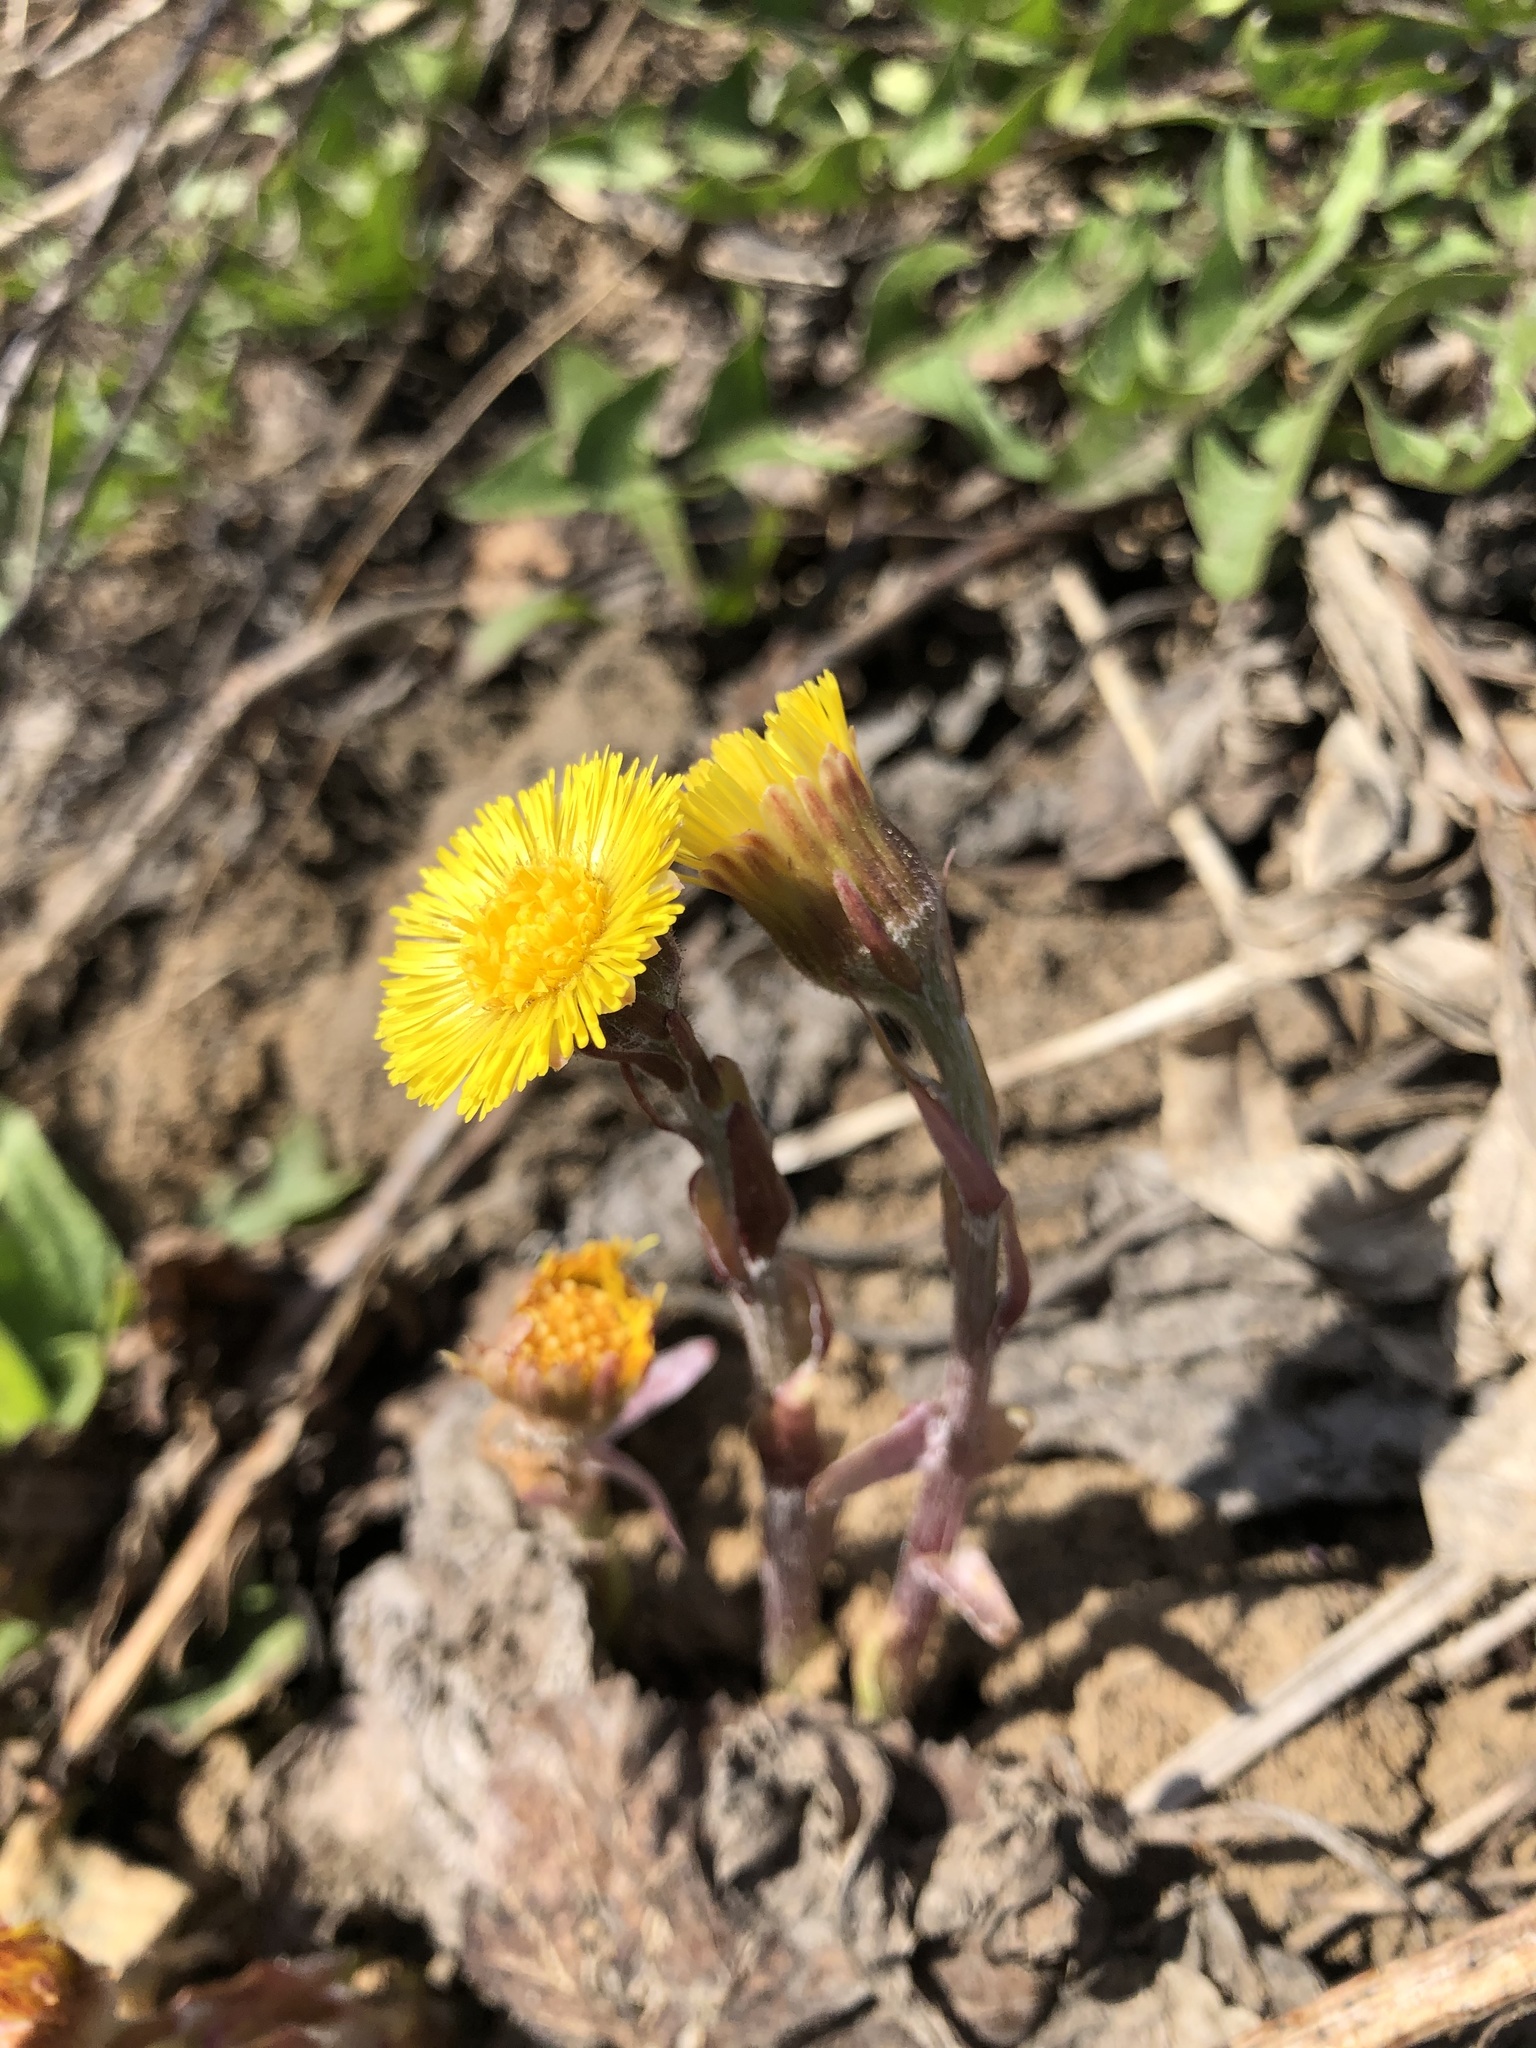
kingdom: Plantae
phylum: Tracheophyta
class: Magnoliopsida
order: Asterales
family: Asteraceae
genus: Tussilago
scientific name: Tussilago farfara
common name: Coltsfoot
